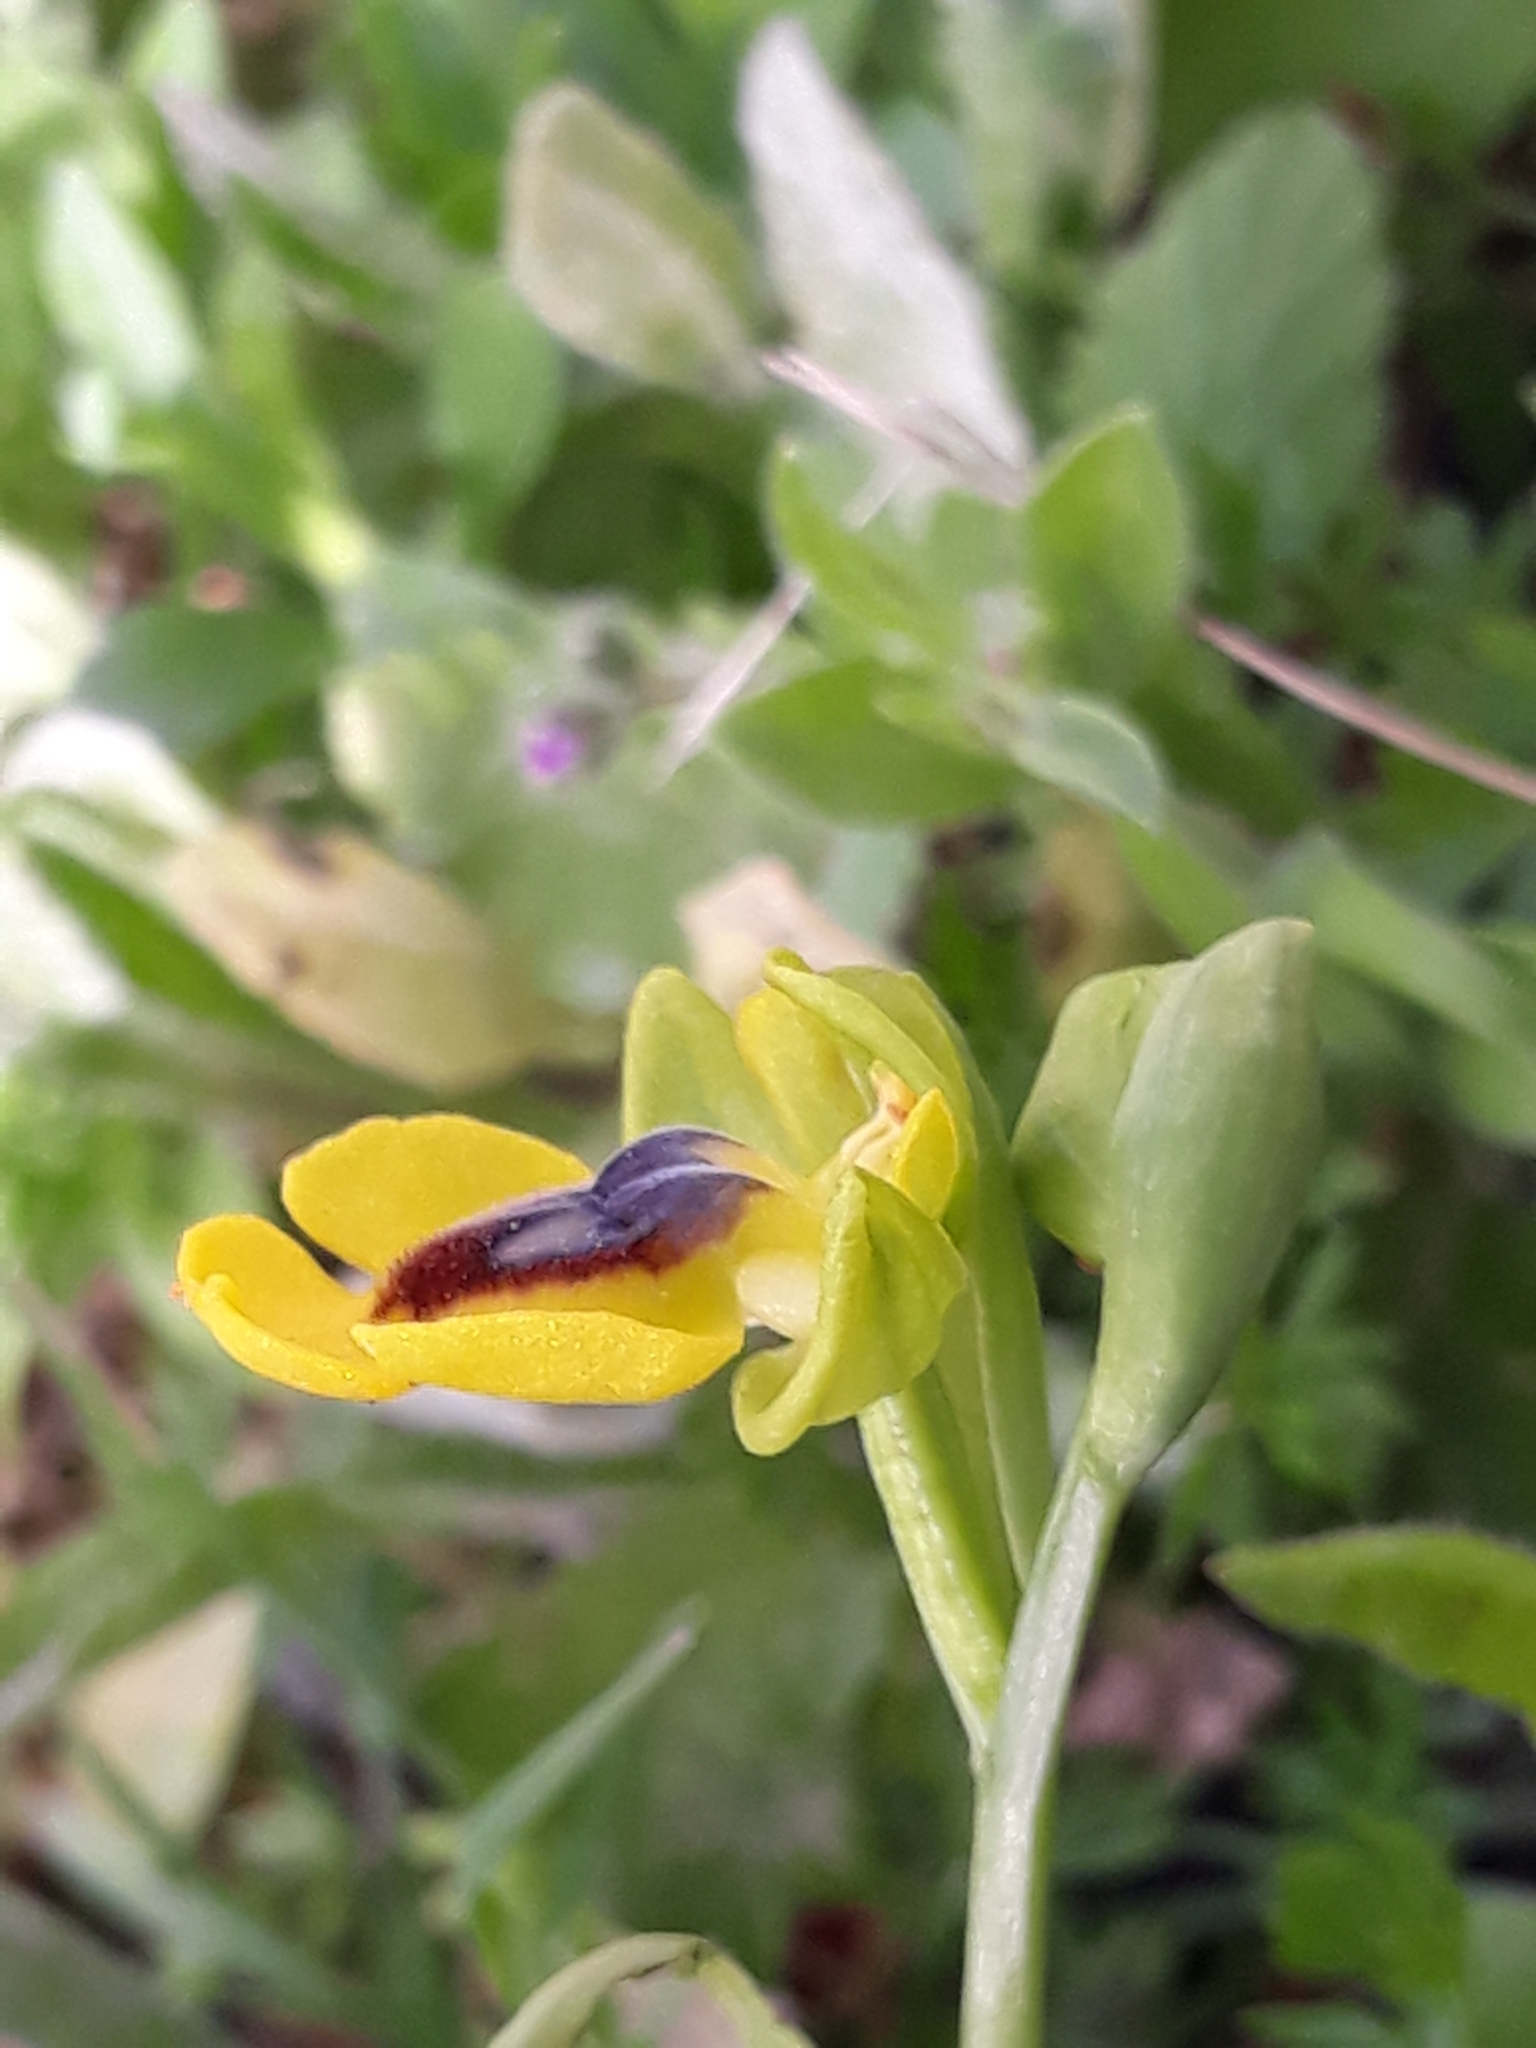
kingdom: Plantae
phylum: Tracheophyta
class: Liliopsida
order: Asparagales
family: Orchidaceae
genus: Ophrys
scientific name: Ophrys lutea
